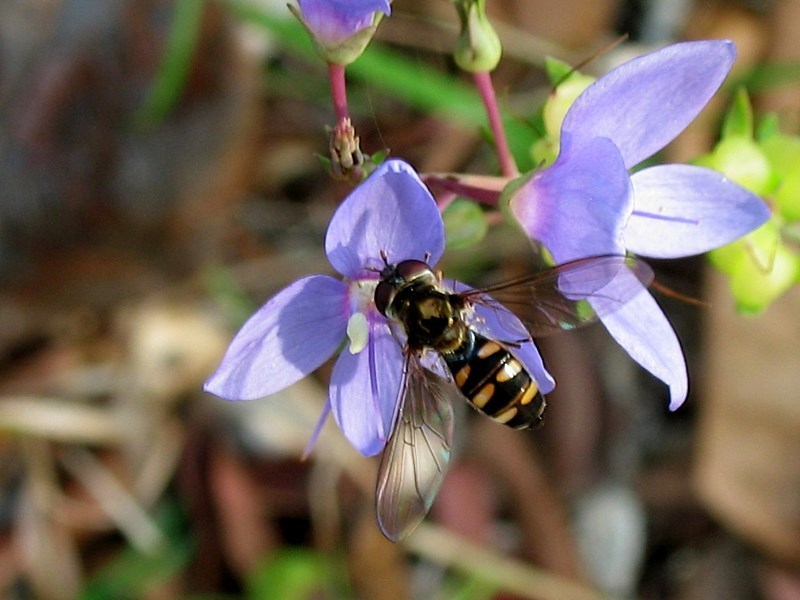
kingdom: Animalia
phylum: Arthropoda
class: Insecta
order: Diptera
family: Syrphidae
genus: Melangyna
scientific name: Melangyna viridiceps
